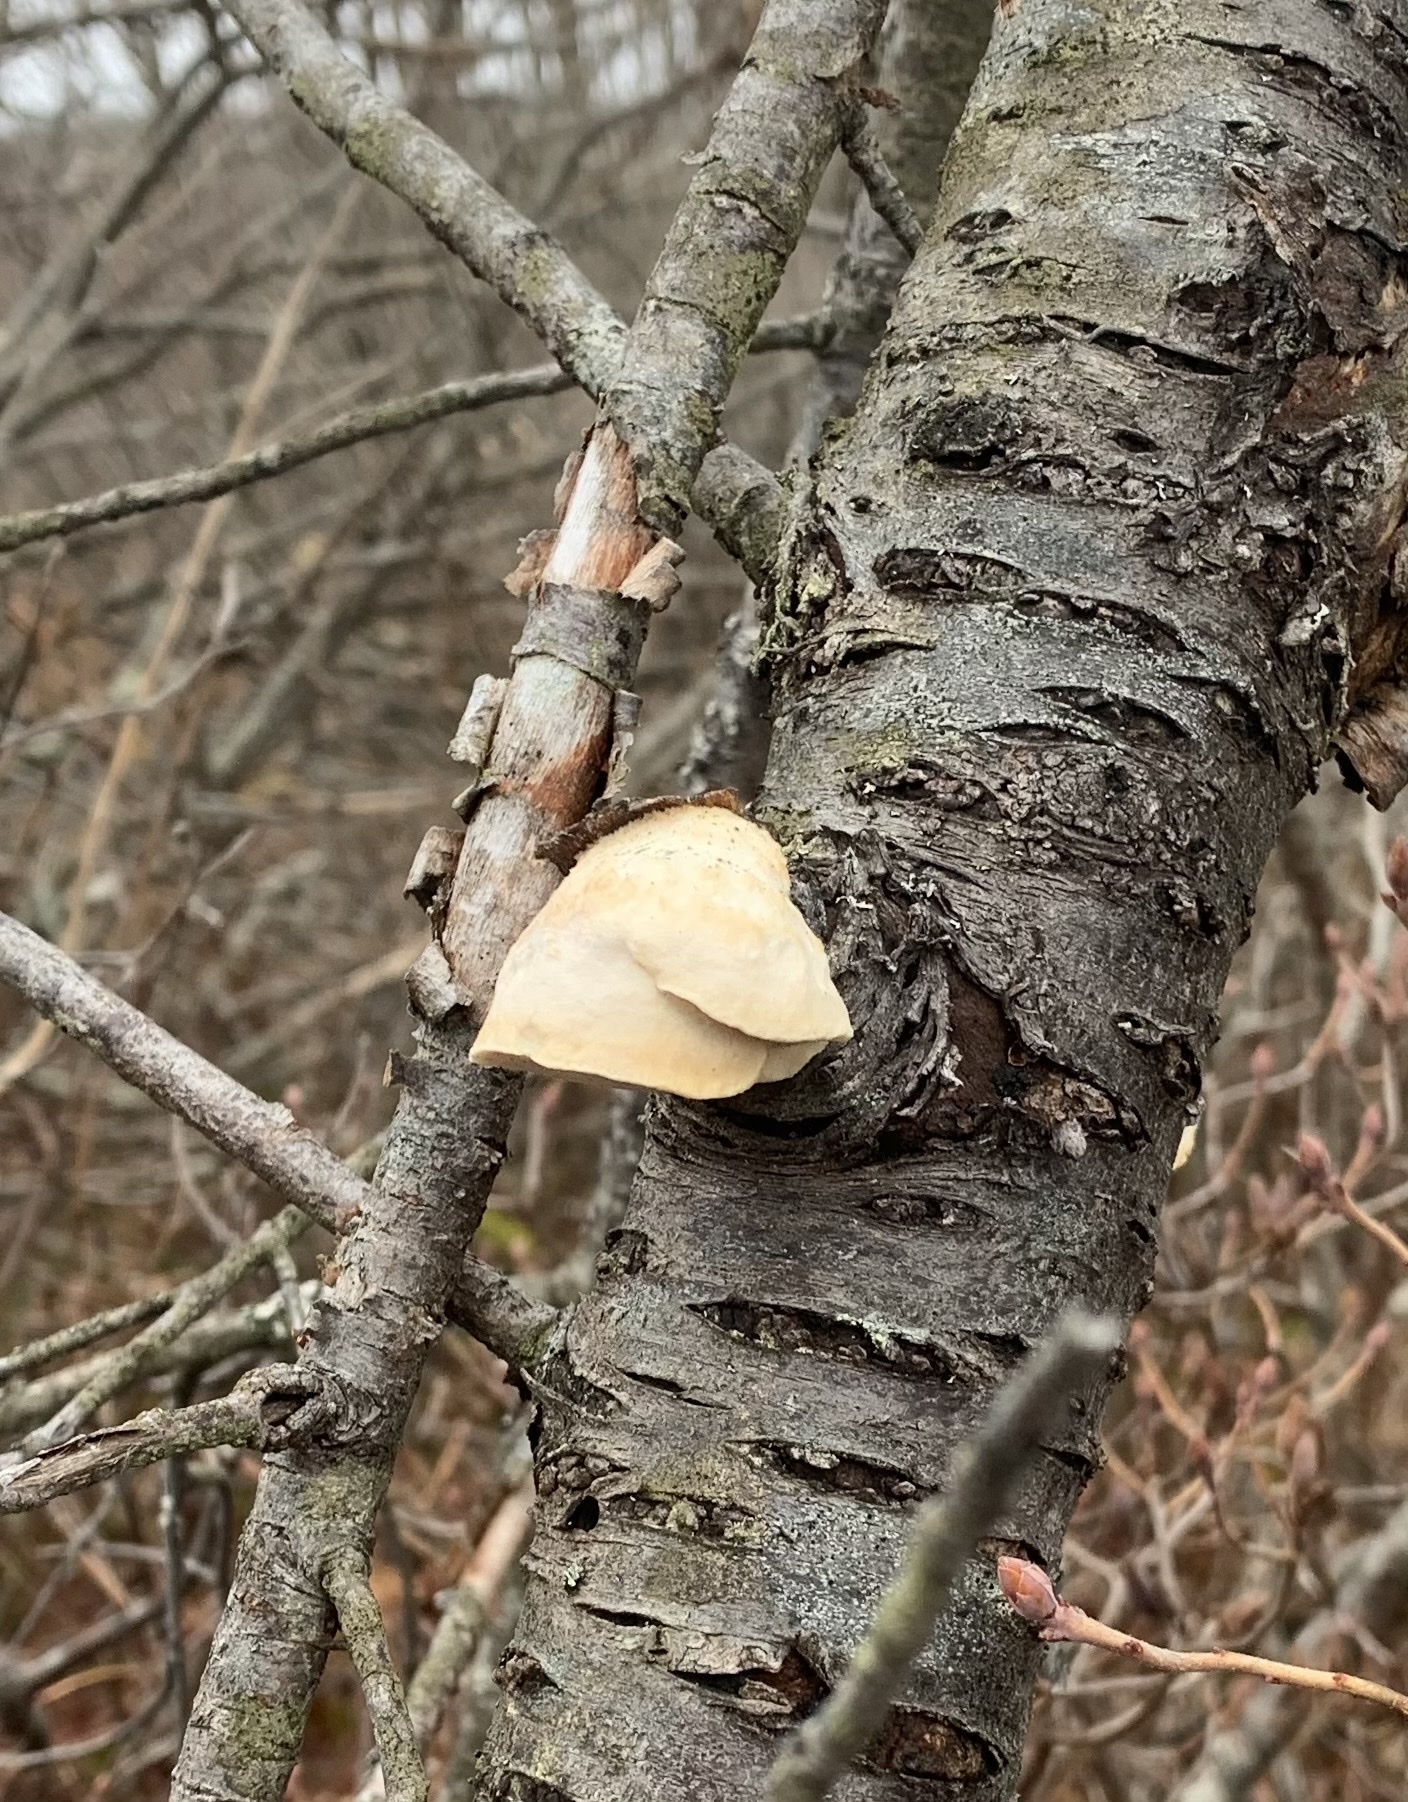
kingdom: Fungi
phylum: Basidiomycota
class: Agaricomycetes
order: Polyporales
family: Fomitopsidaceae
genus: Fomitopsis
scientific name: Fomitopsis betulina
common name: Birch polypore
